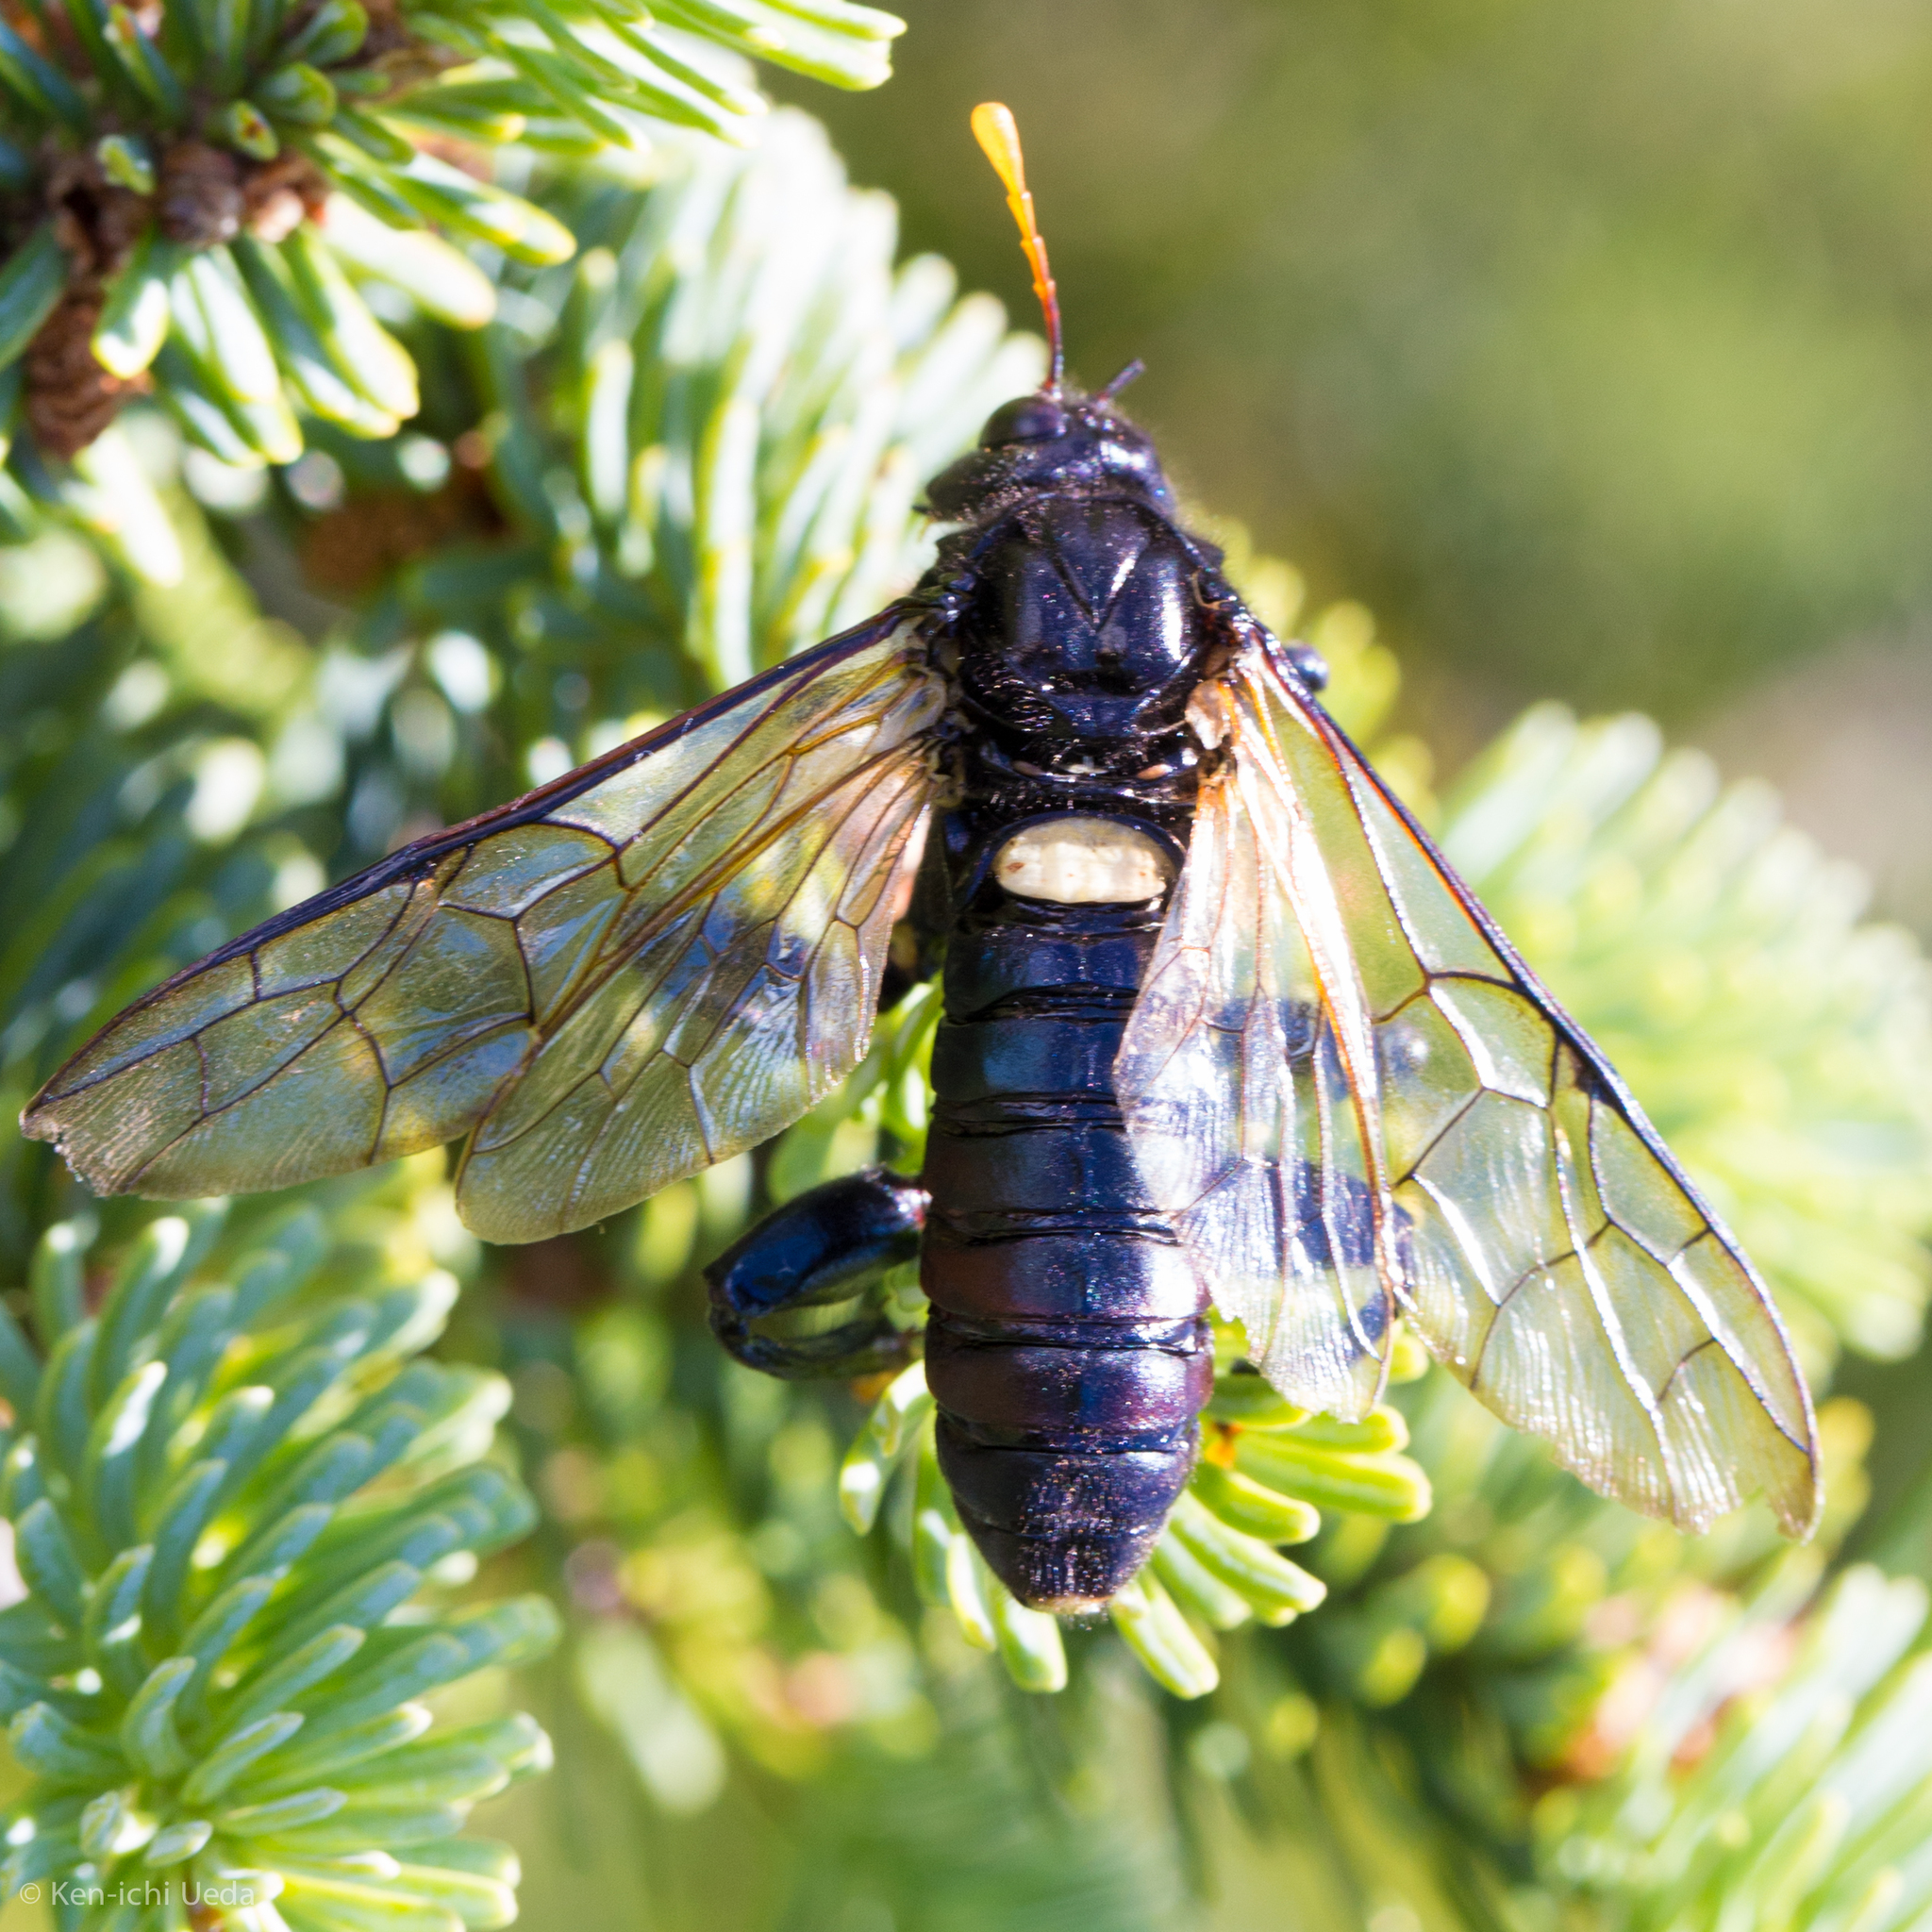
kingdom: Animalia
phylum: Arthropoda
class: Insecta
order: Hymenoptera
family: Cimbicidae
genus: Cimbex
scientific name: Cimbex americana
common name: Elm sawfly
